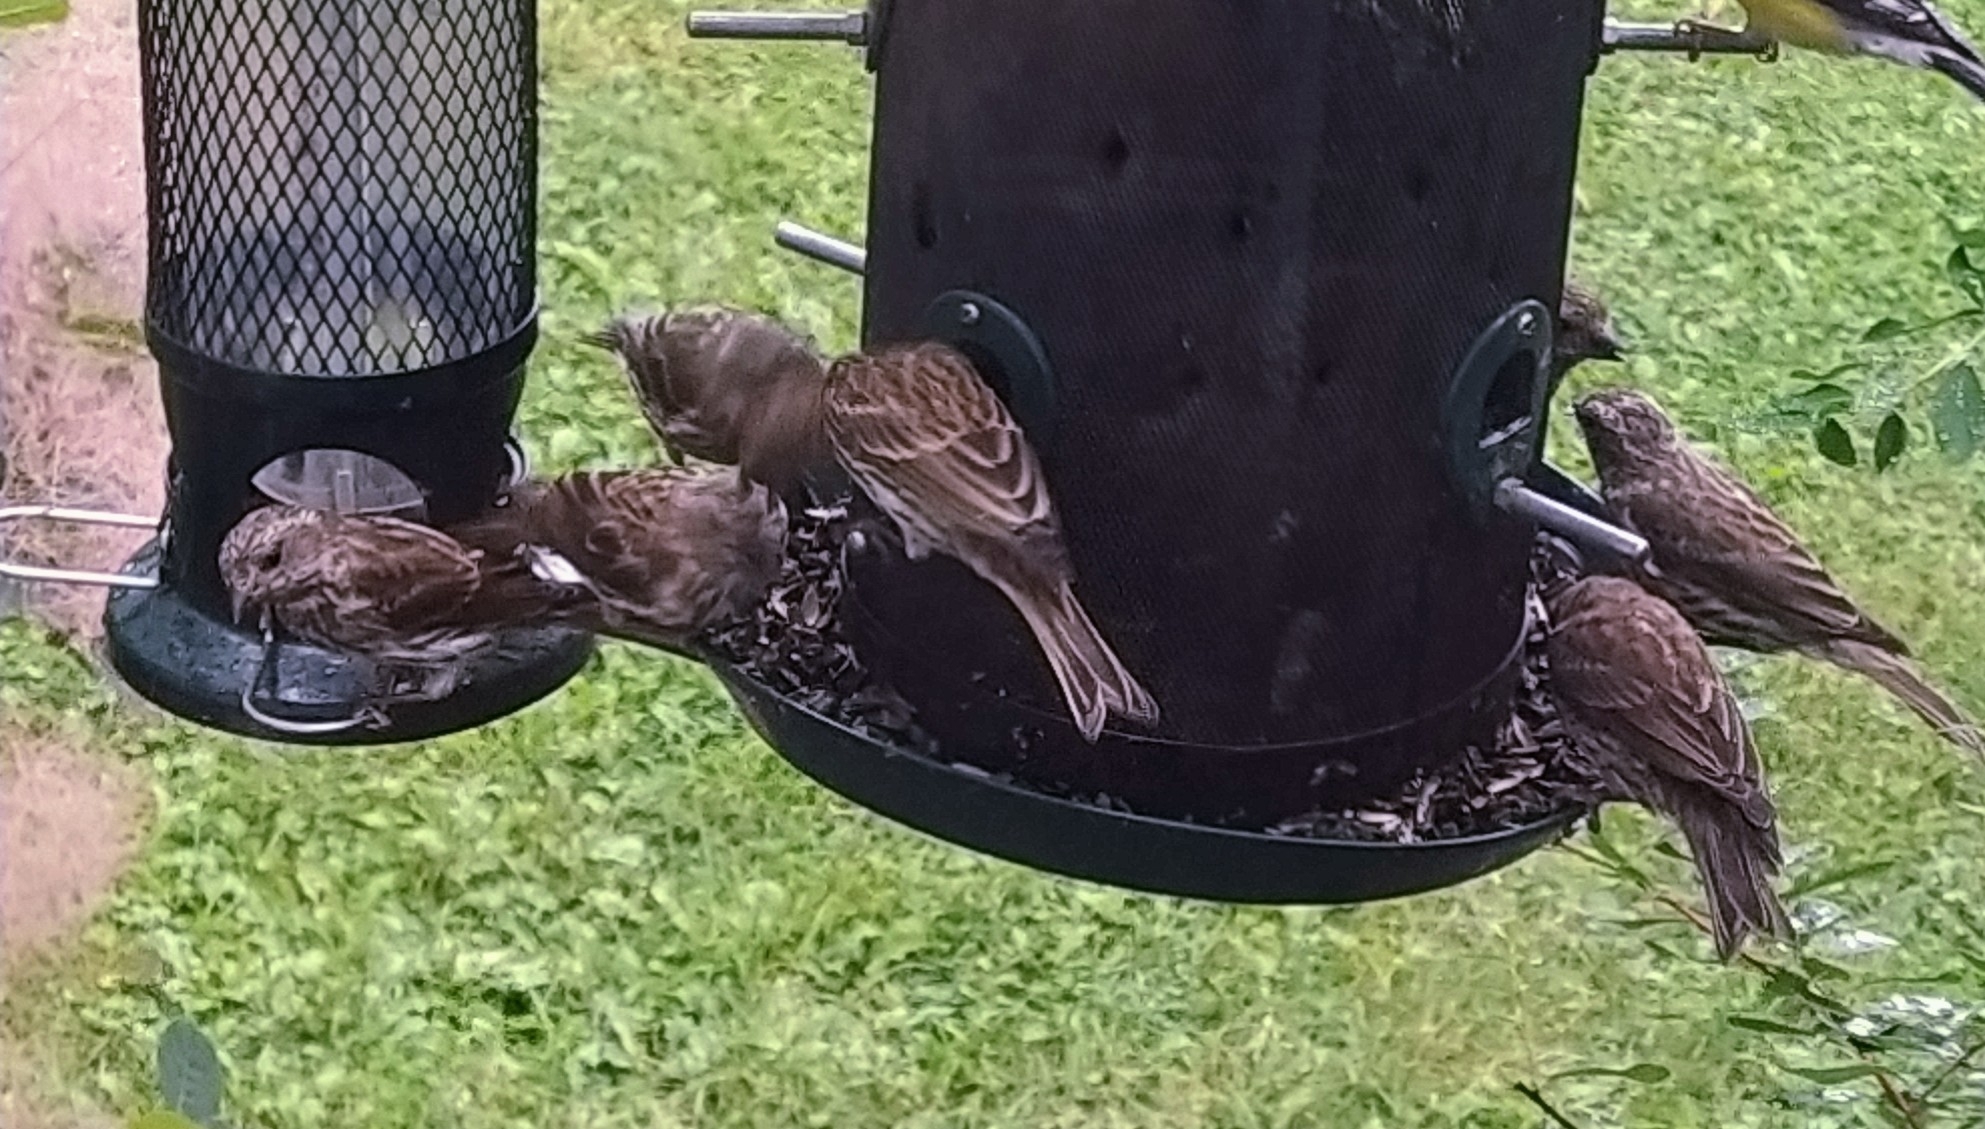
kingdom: Animalia
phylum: Chordata
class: Aves
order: Passeriformes
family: Fringillidae
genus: Haemorhous
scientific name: Haemorhous purpureus
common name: Purple finch
